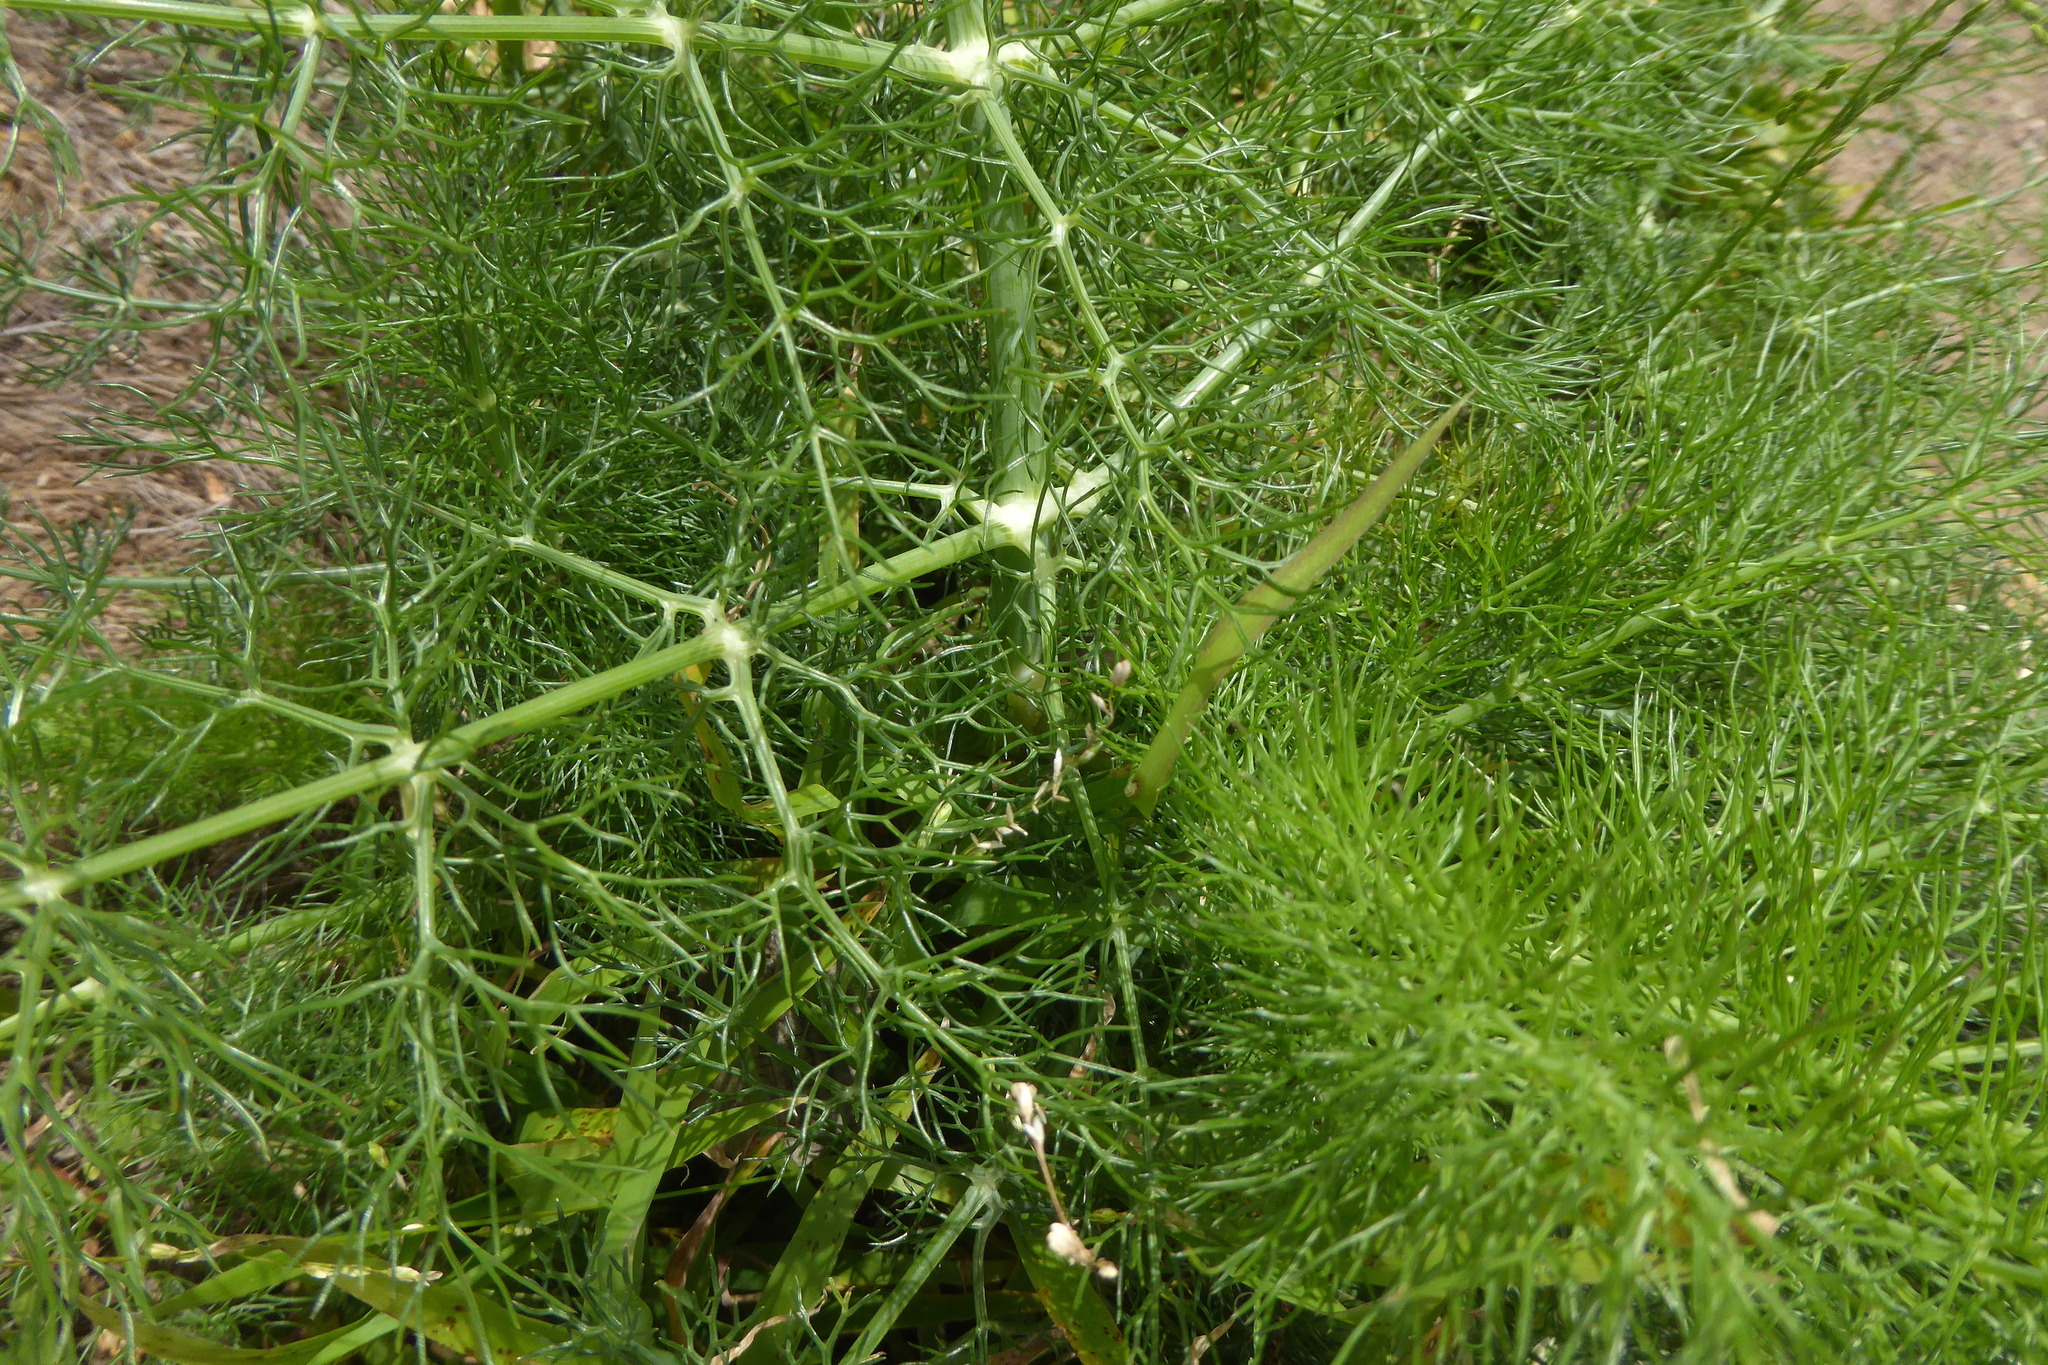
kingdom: Plantae
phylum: Tracheophyta
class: Magnoliopsida
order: Apiales
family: Apiaceae
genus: Foeniculum
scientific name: Foeniculum vulgare
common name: Fennel
